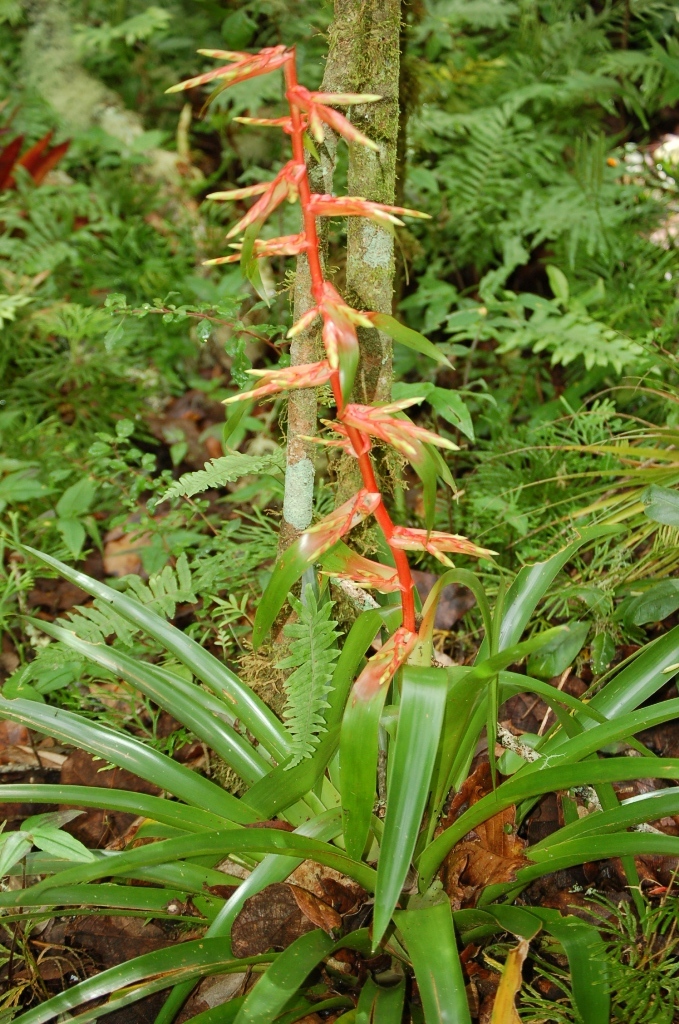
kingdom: Plantae
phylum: Tracheophyta
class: Liliopsida
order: Poales
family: Bromeliaceae
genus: Tillandsia
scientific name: Tillandsia guatemalensis
